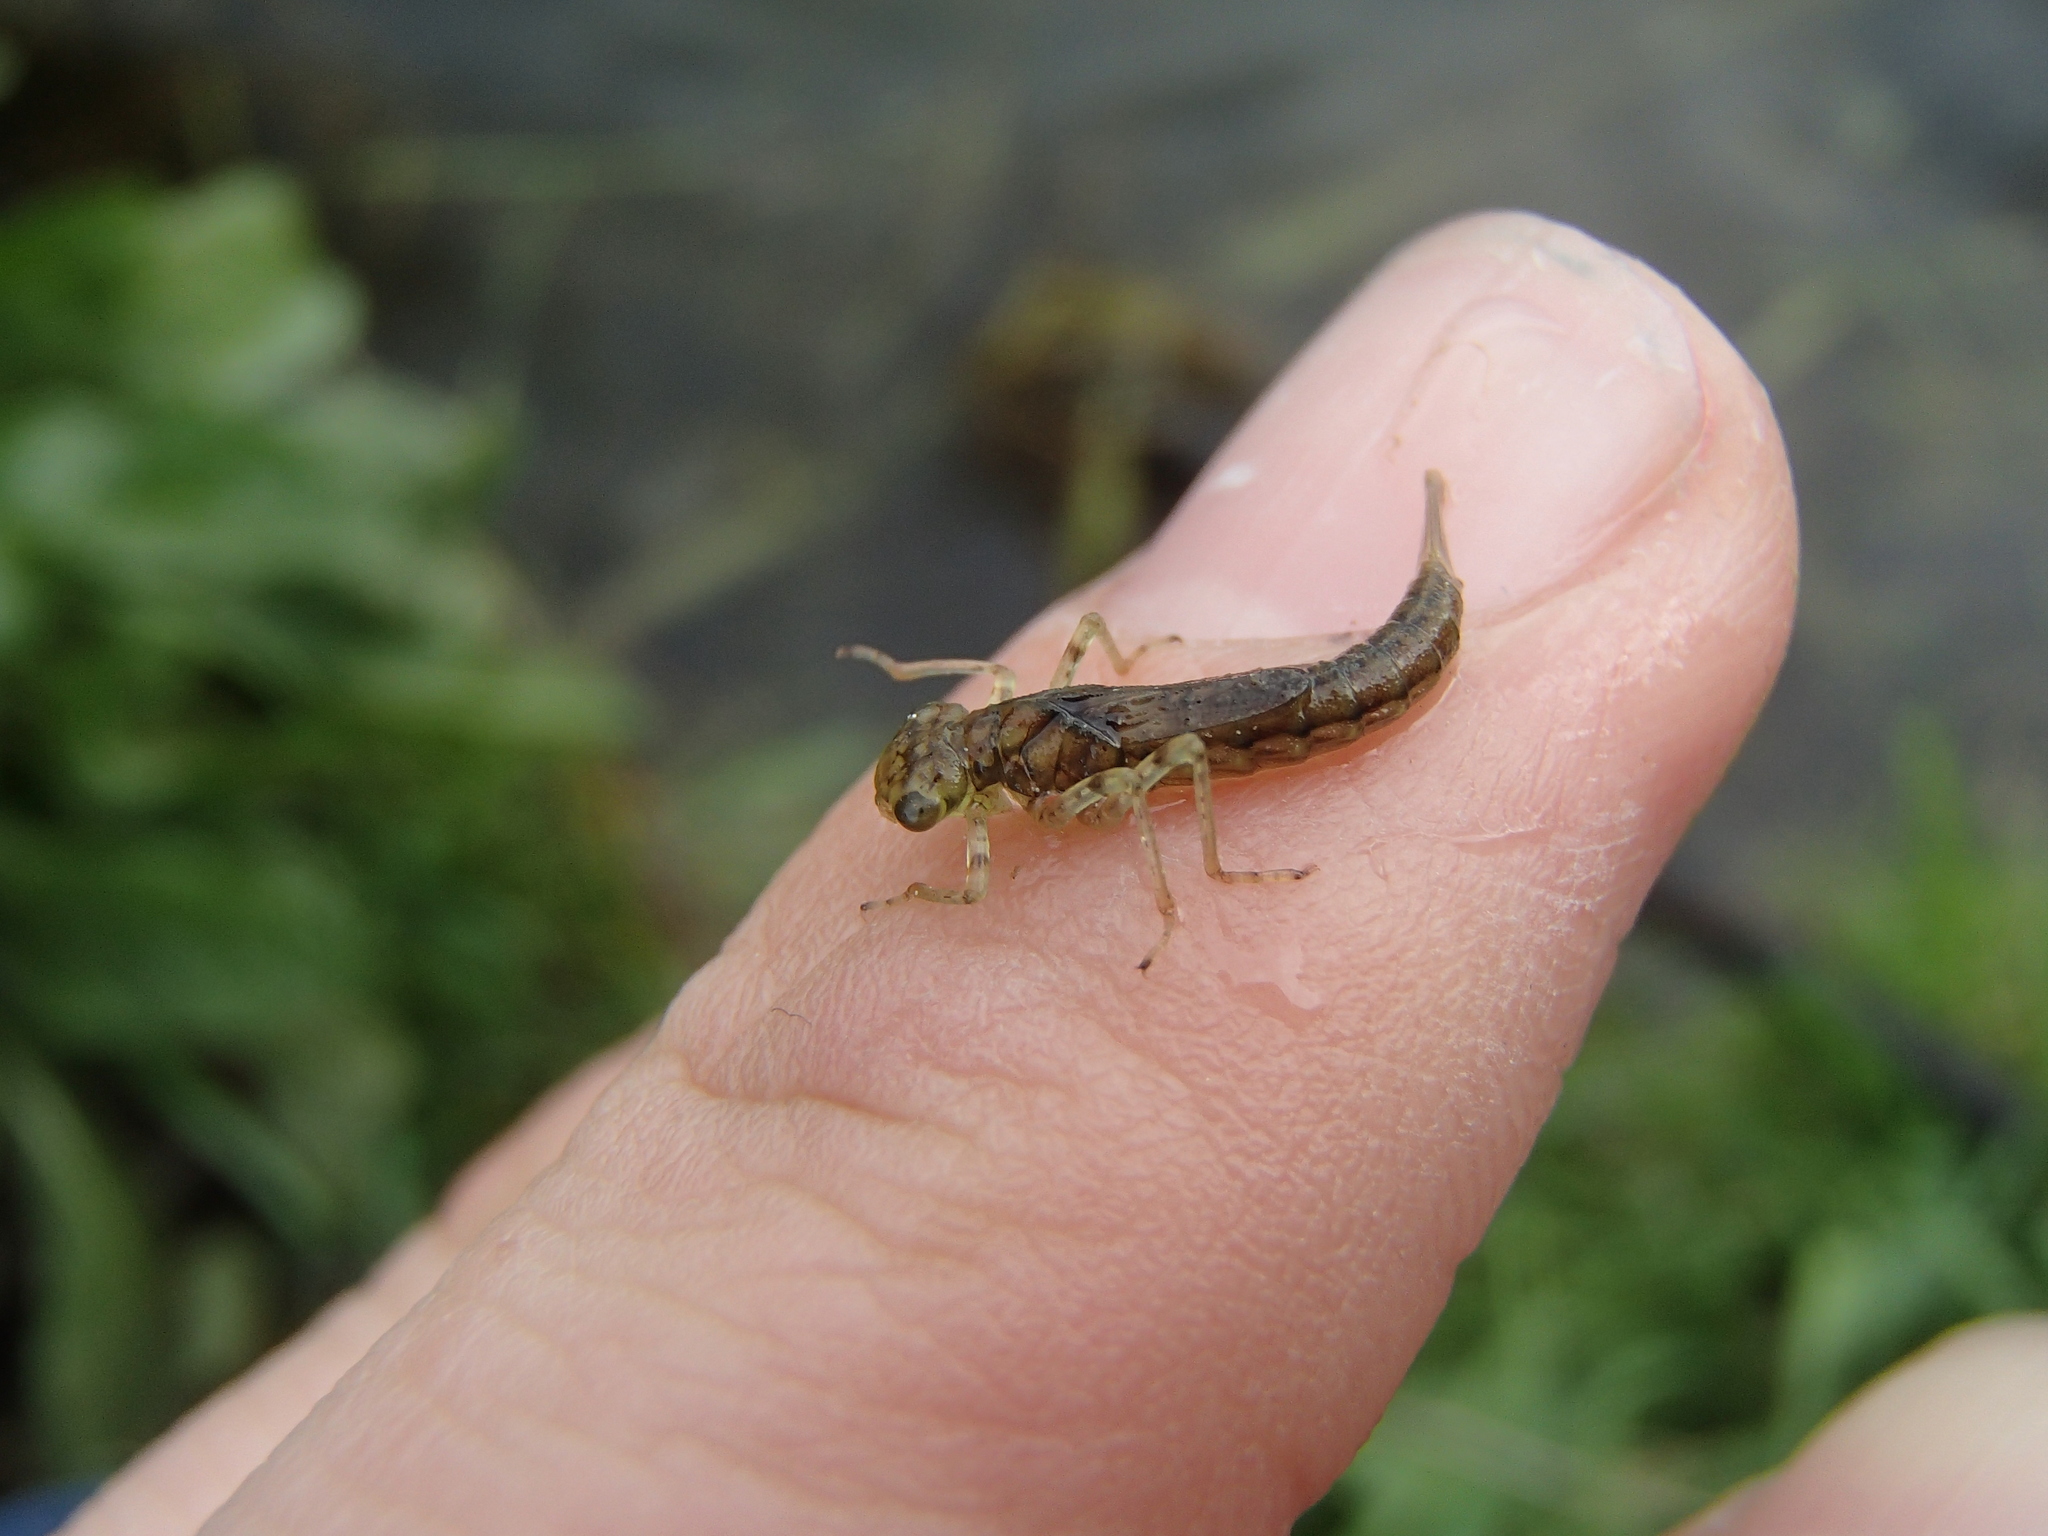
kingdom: Animalia
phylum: Arthropoda
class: Insecta
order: Odonata
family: Coenagrionidae
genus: Xanthocnemis
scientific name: Xanthocnemis zealandica
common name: Common redcoat damselfly
